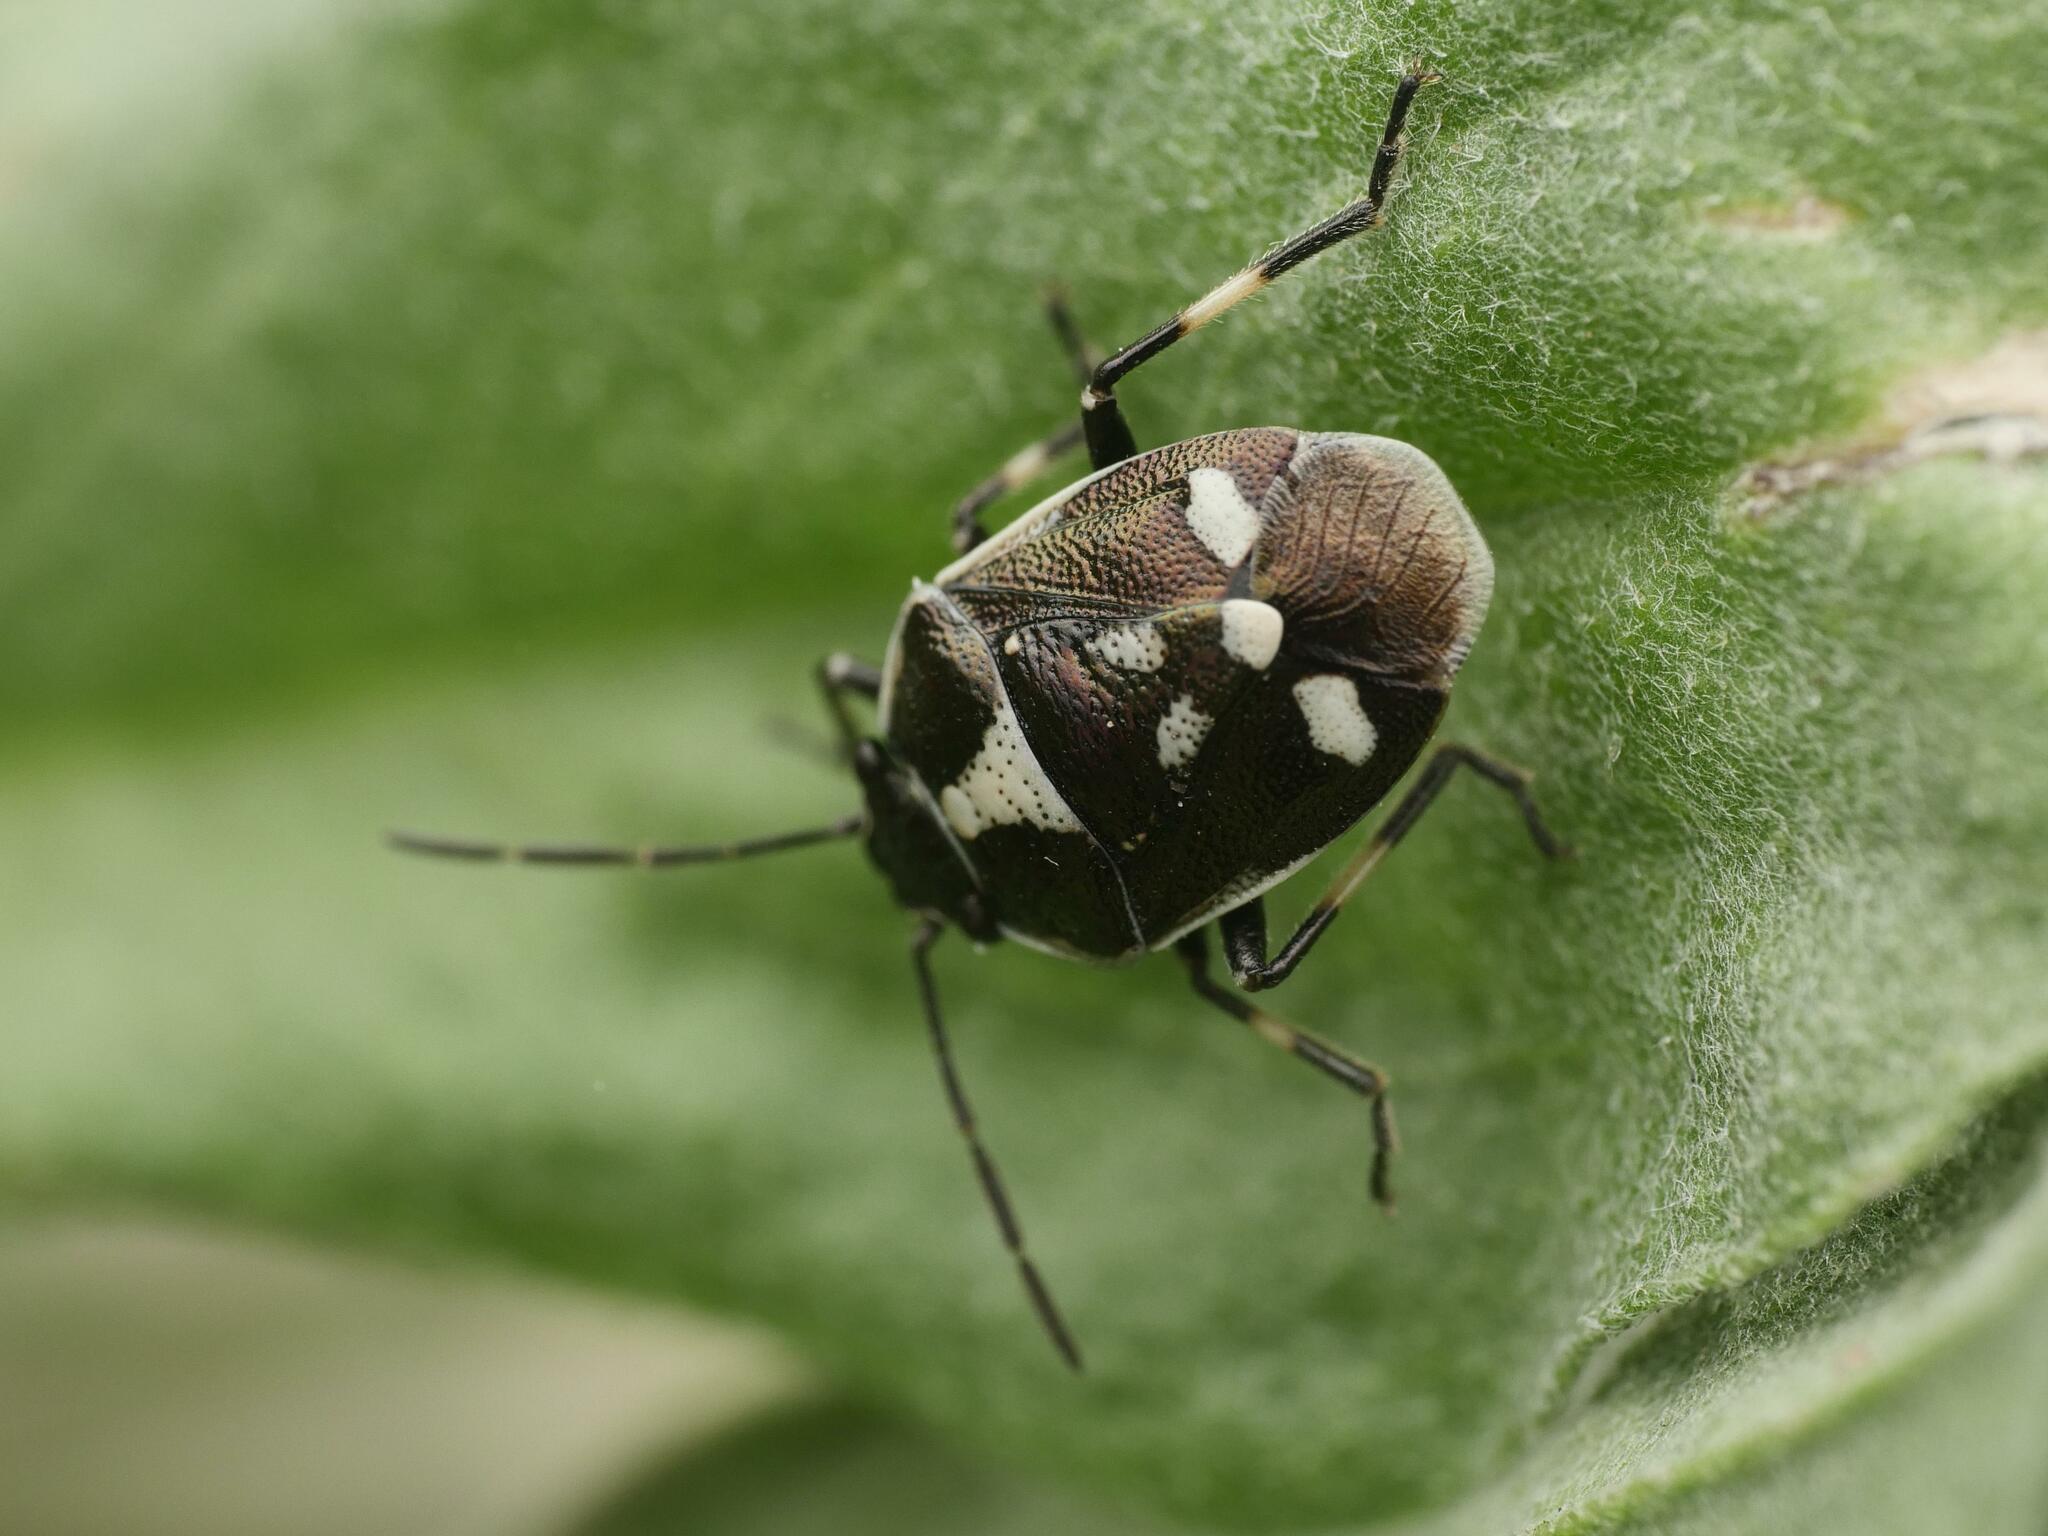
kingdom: Animalia
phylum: Arthropoda
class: Insecta
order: Hemiptera
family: Pentatomidae
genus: Eurydema
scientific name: Eurydema oleracea
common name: Cabbage bug
